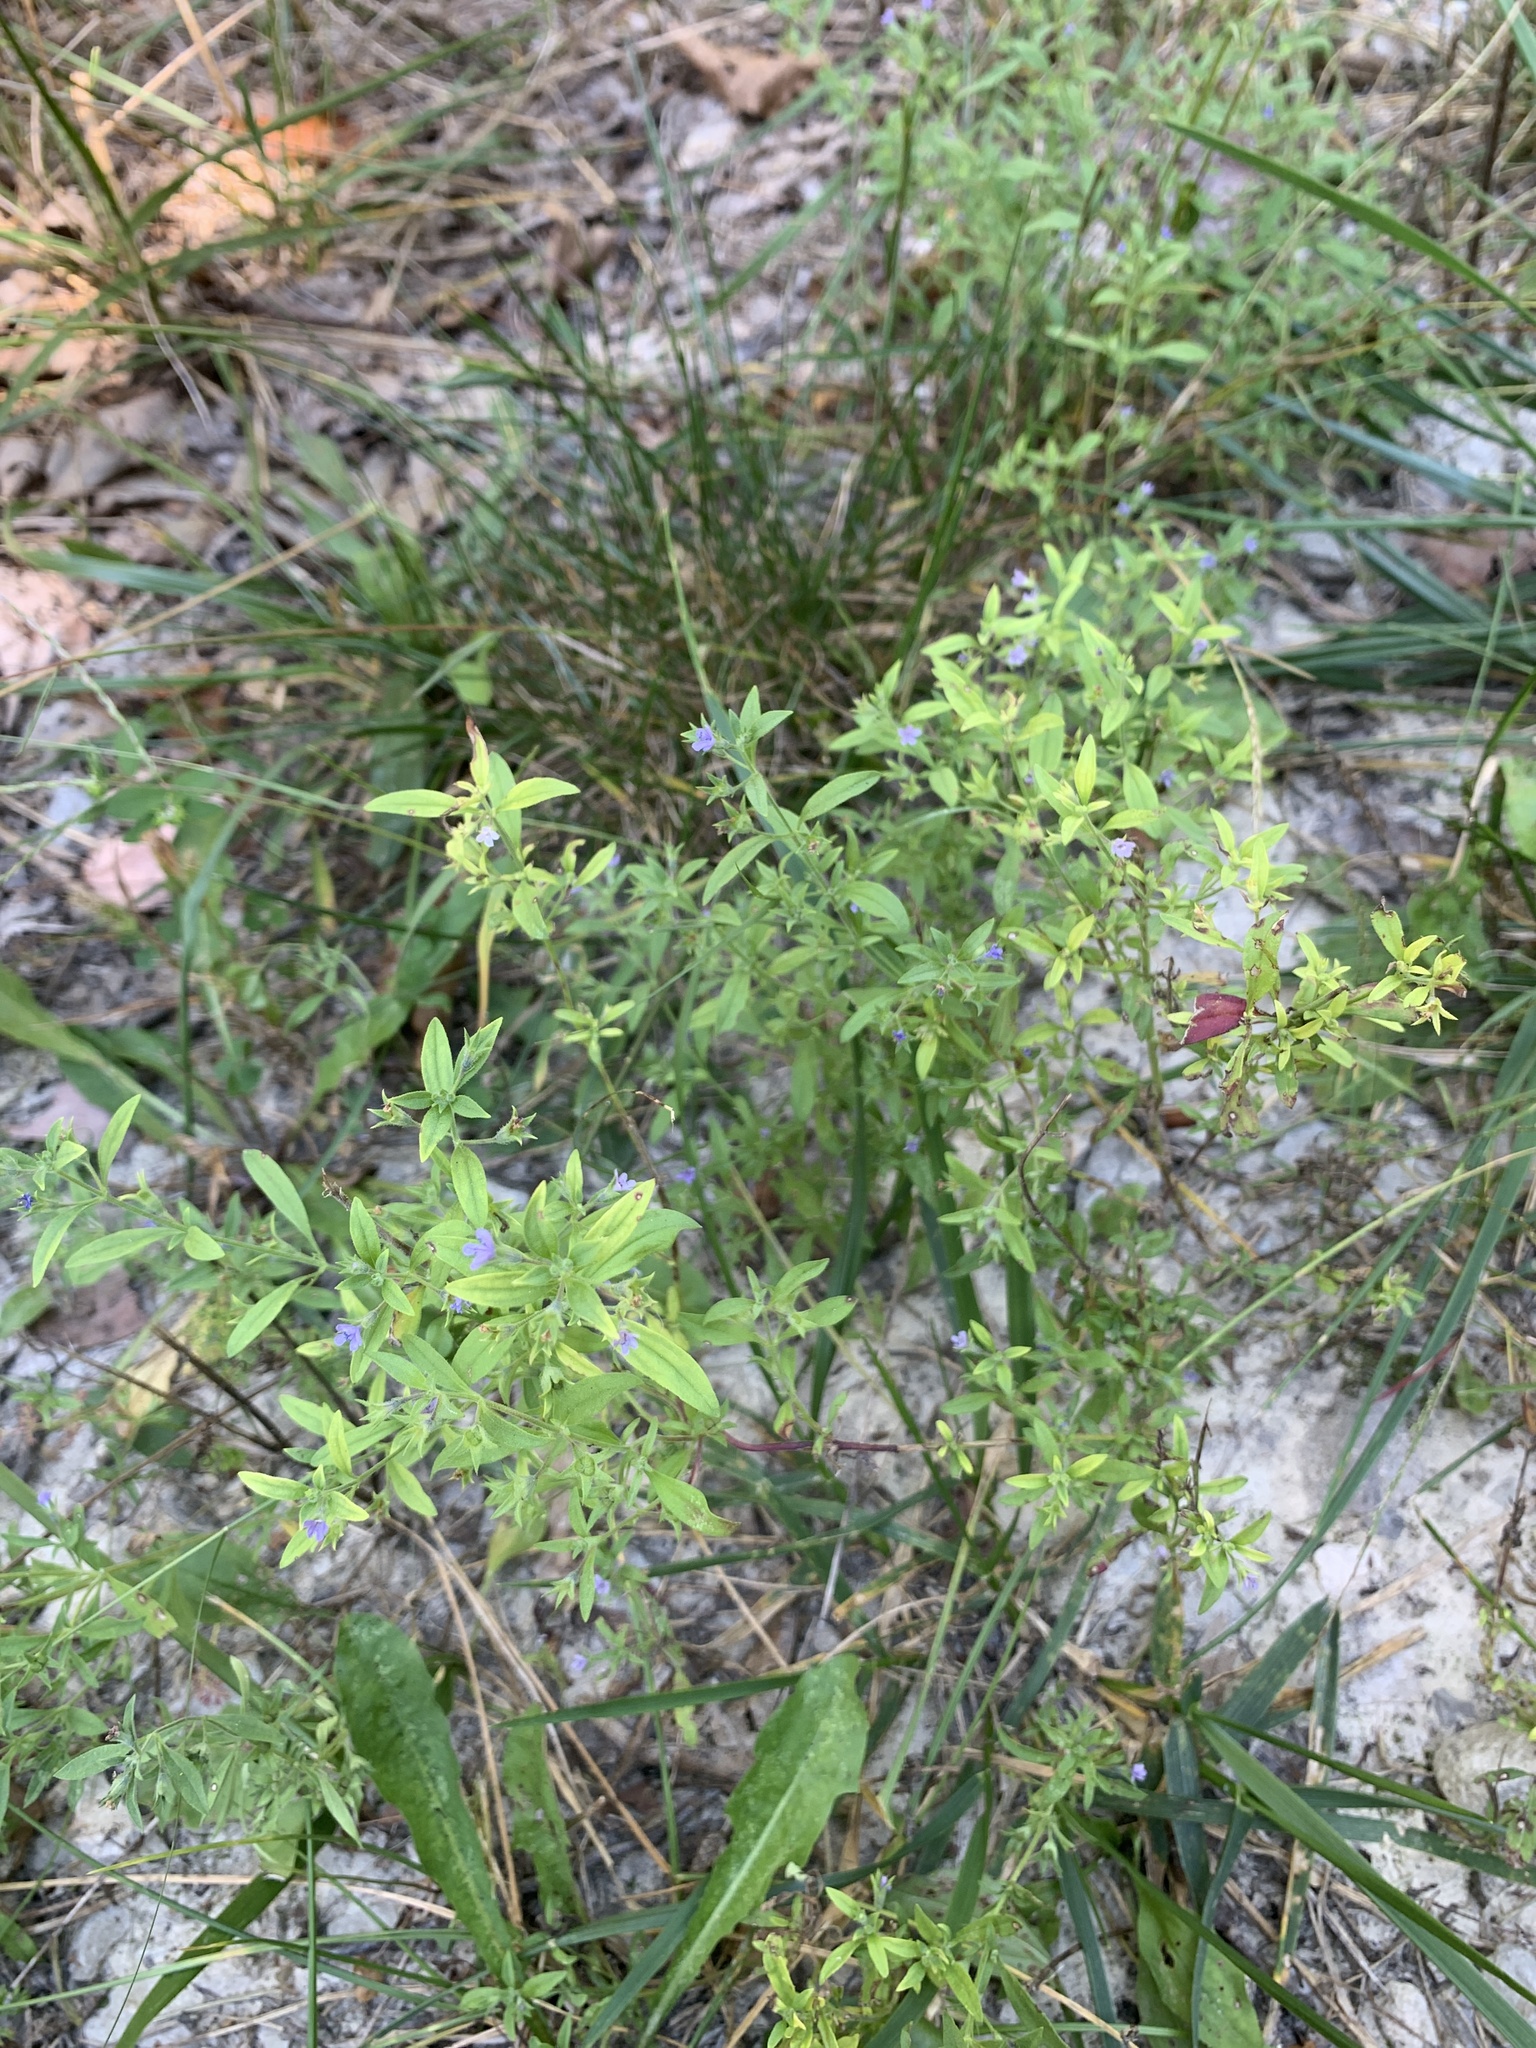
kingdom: Plantae
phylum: Tracheophyta
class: Magnoliopsida
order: Lamiales
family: Lamiaceae
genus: Trichostema
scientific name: Trichostema brachiatum
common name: False pennyroyal
